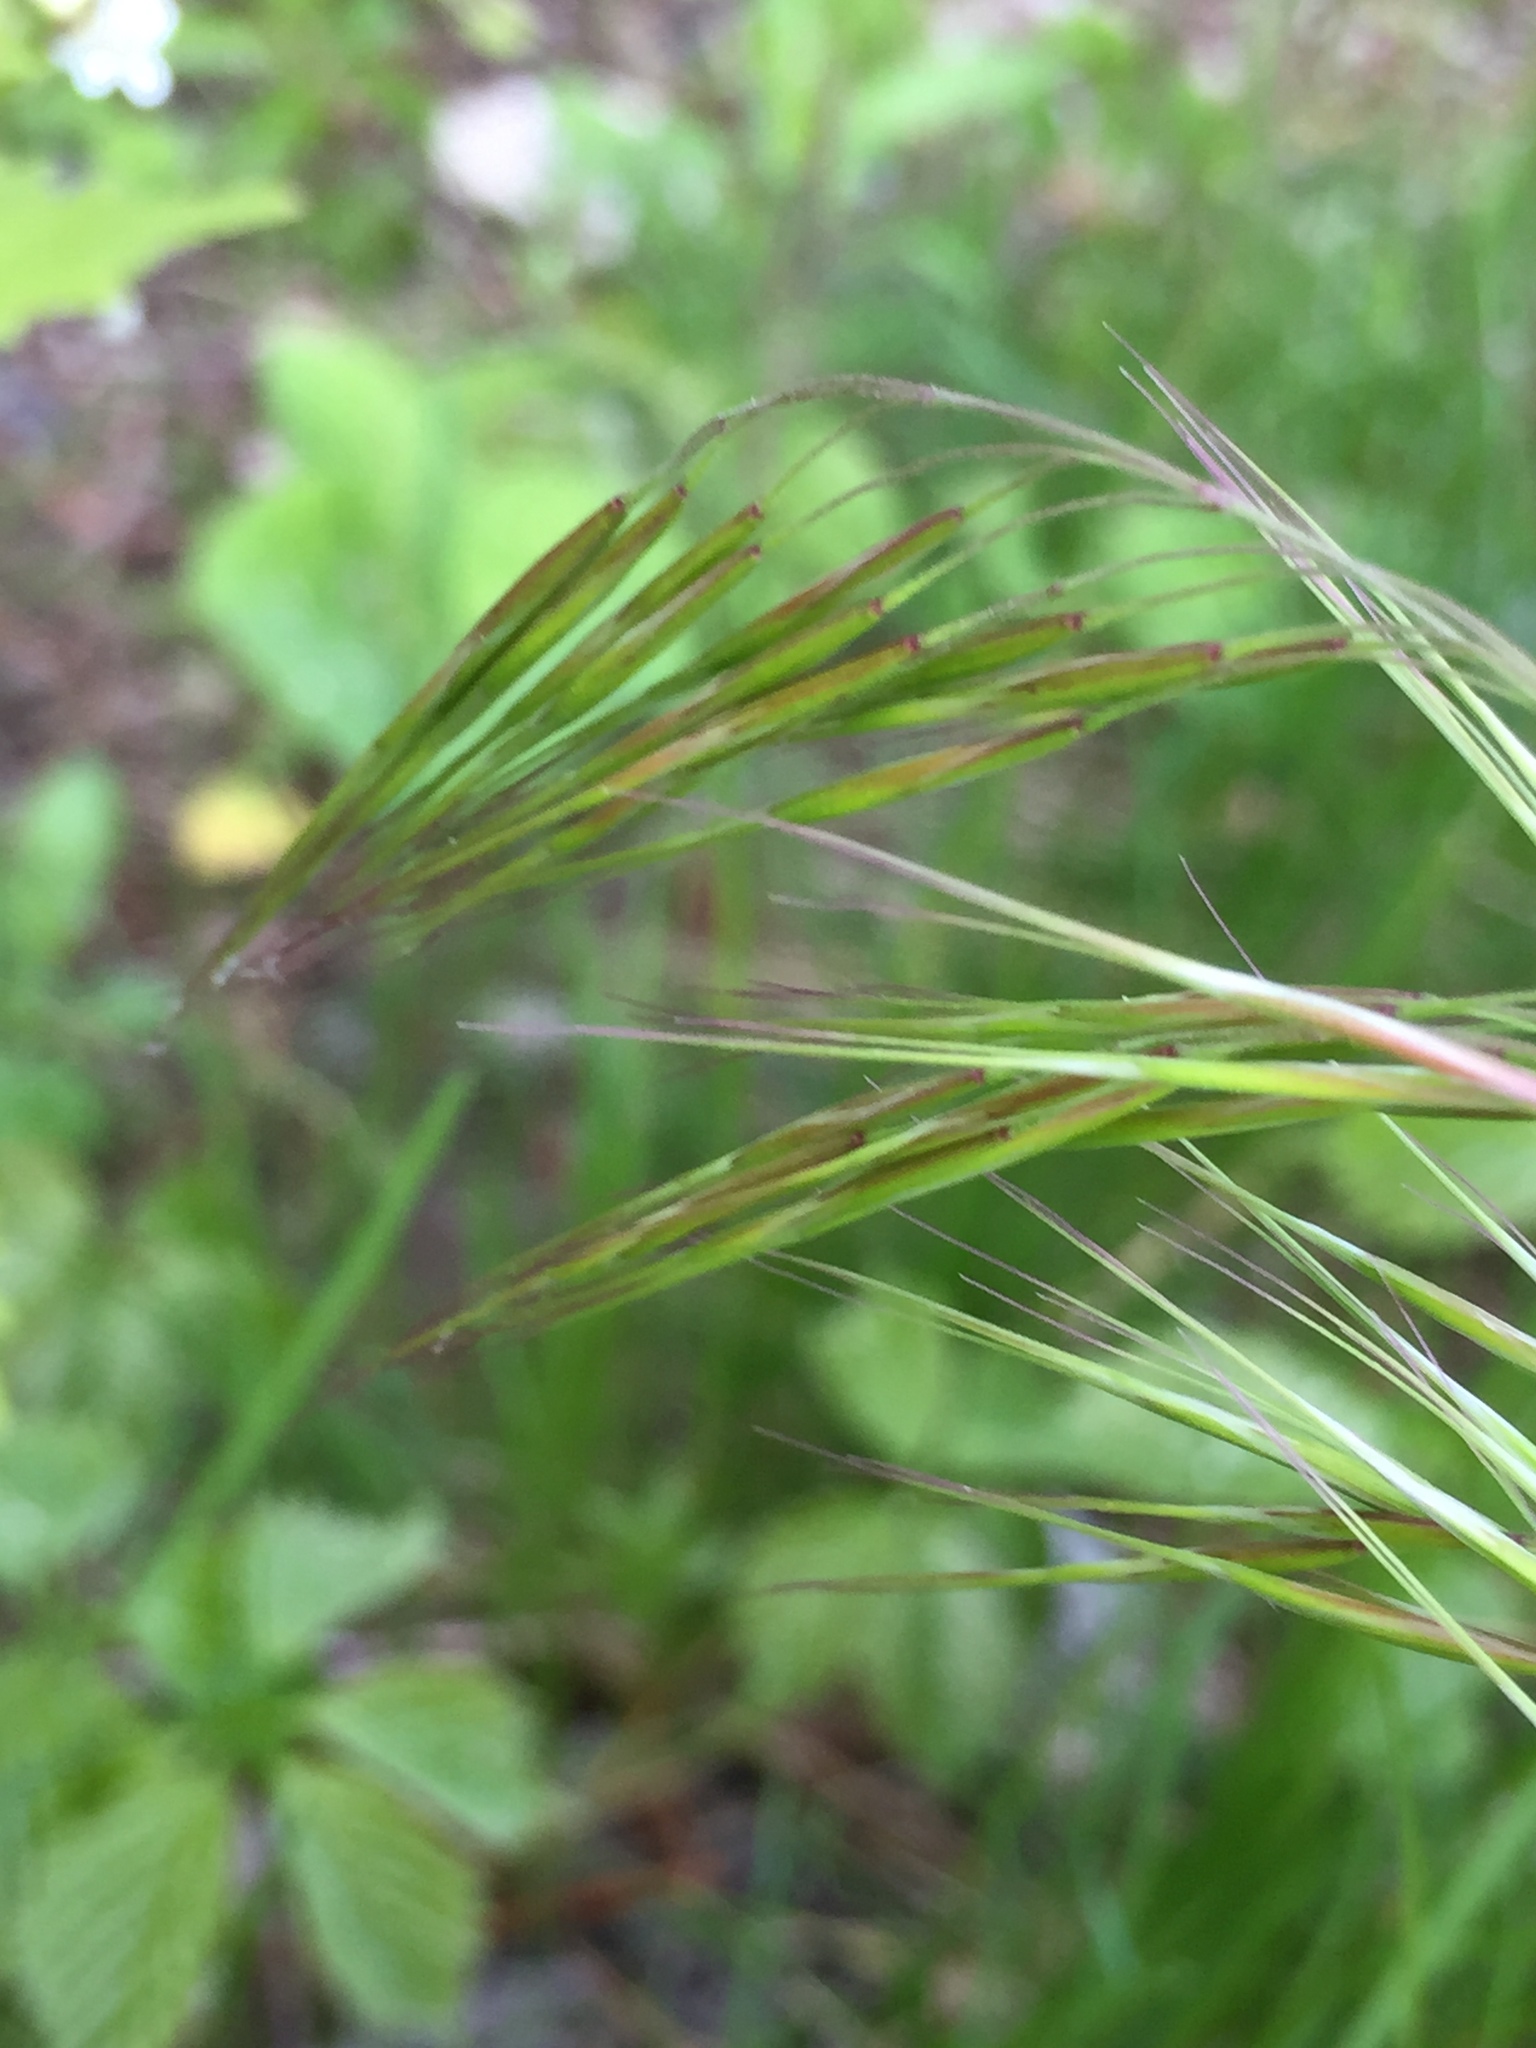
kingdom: Plantae
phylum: Tracheophyta
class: Liliopsida
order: Poales
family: Poaceae
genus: Bromus
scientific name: Bromus tectorum
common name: Cheatgrass
